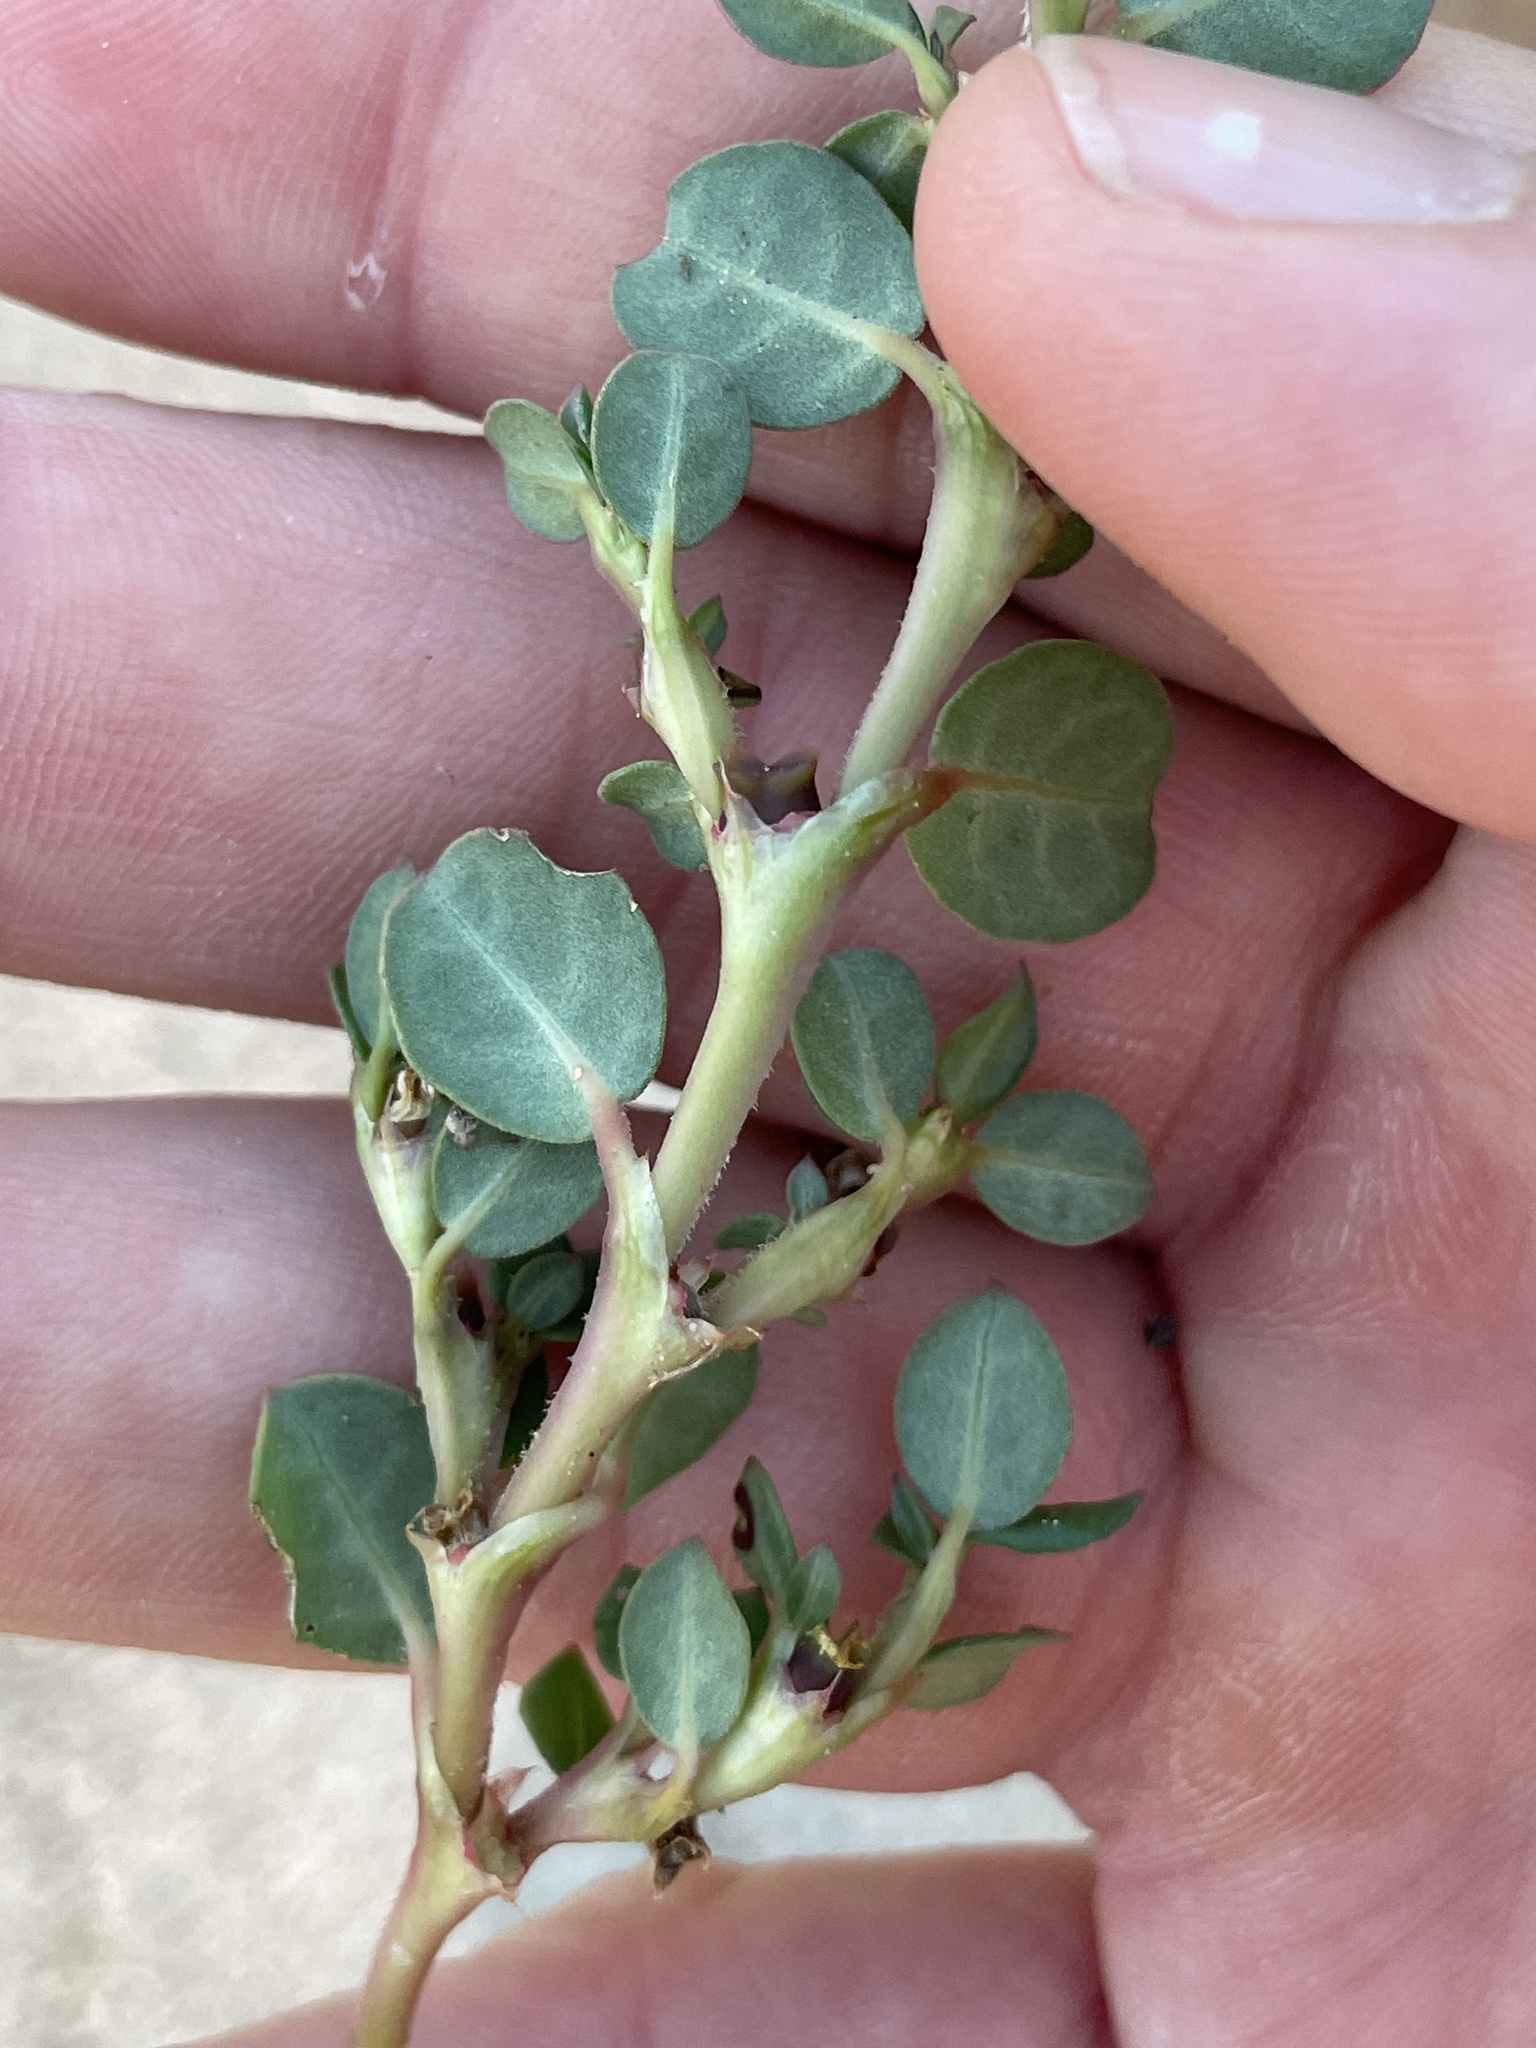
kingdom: Plantae
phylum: Tracheophyta
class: Magnoliopsida
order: Caryophyllales
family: Aizoaceae
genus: Trianthema
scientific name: Trianthema portulacastrum
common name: Desert horsepurslane
